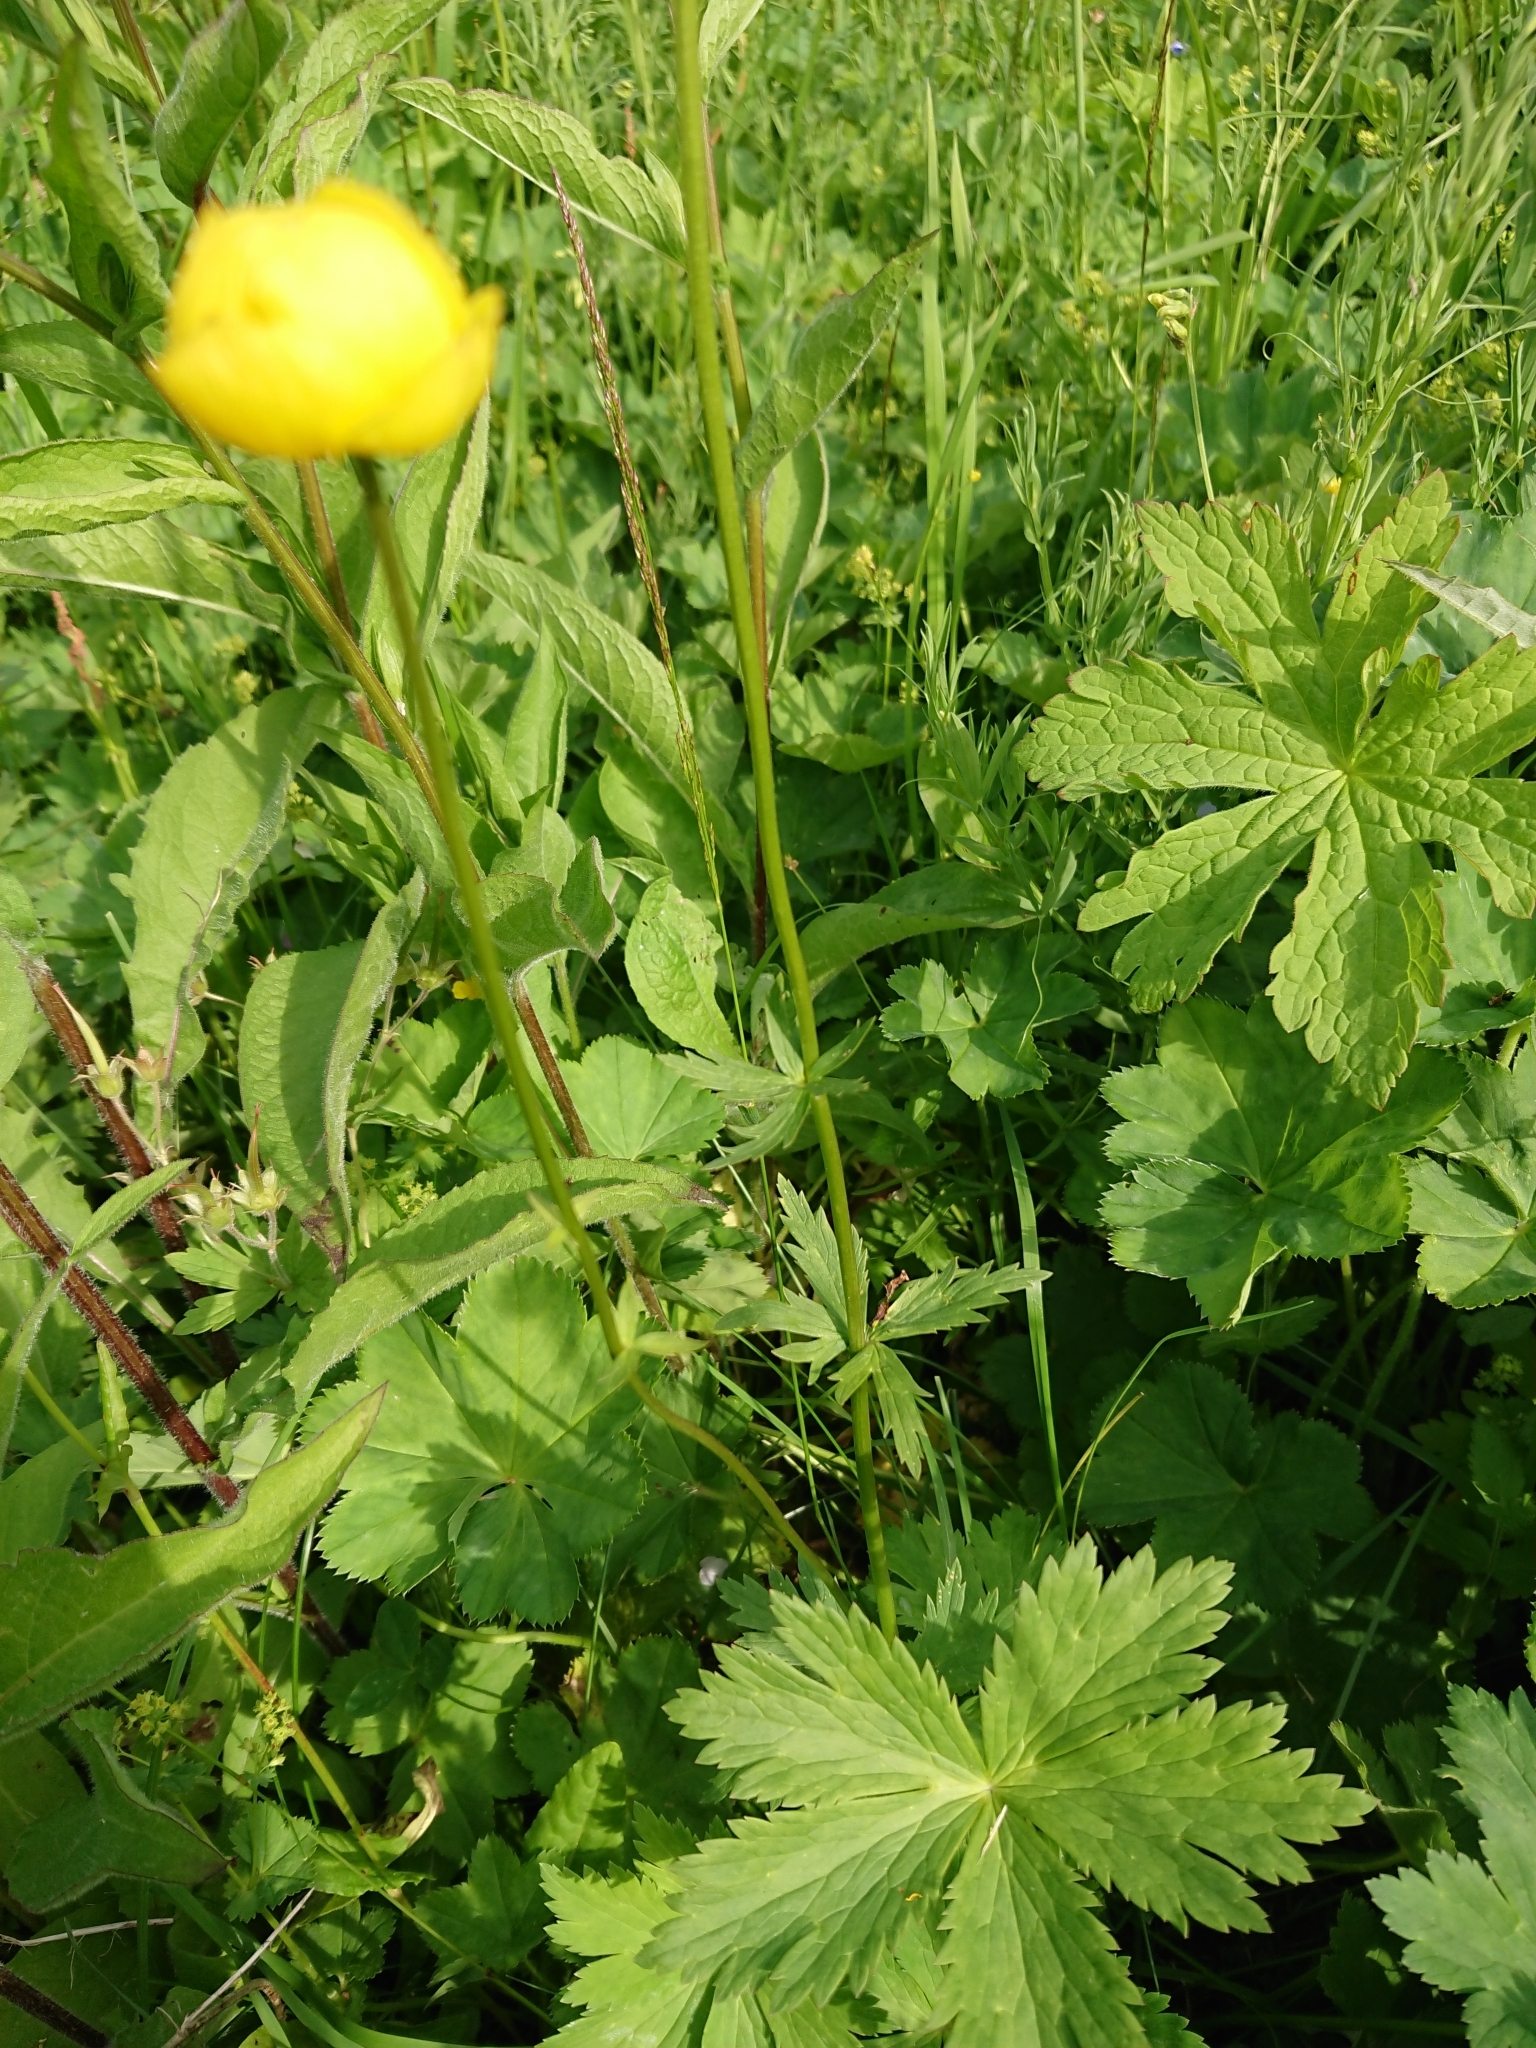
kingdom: Plantae
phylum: Tracheophyta
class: Magnoliopsida
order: Ranunculales
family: Ranunculaceae
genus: Trollius
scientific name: Trollius europaeus
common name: European globeflower
